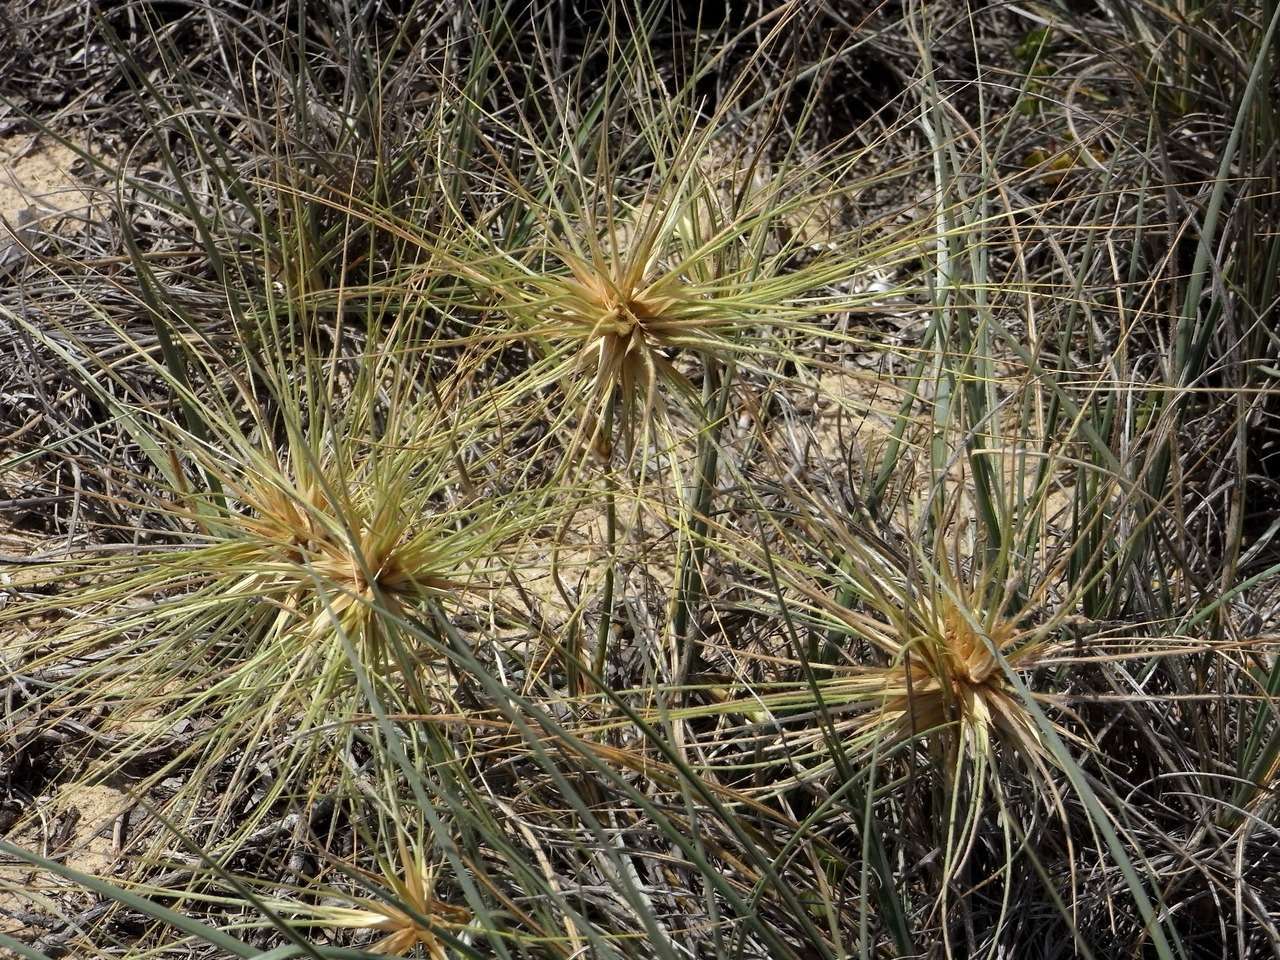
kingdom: Plantae
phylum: Tracheophyta
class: Liliopsida
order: Poales
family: Poaceae
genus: Spinifex
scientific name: Spinifex sericeus
